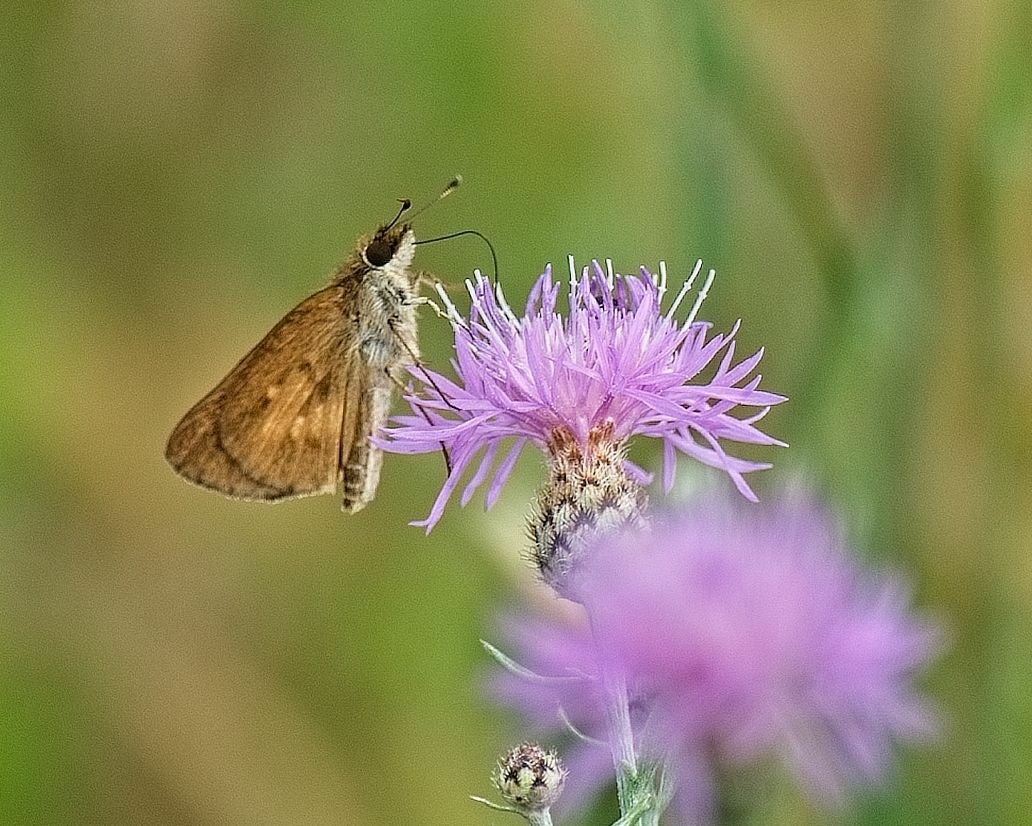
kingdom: Animalia
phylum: Arthropoda
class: Insecta
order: Lepidoptera
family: Hesperiidae
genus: Poanes
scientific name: Poanes viator
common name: Broad-winged skipper
